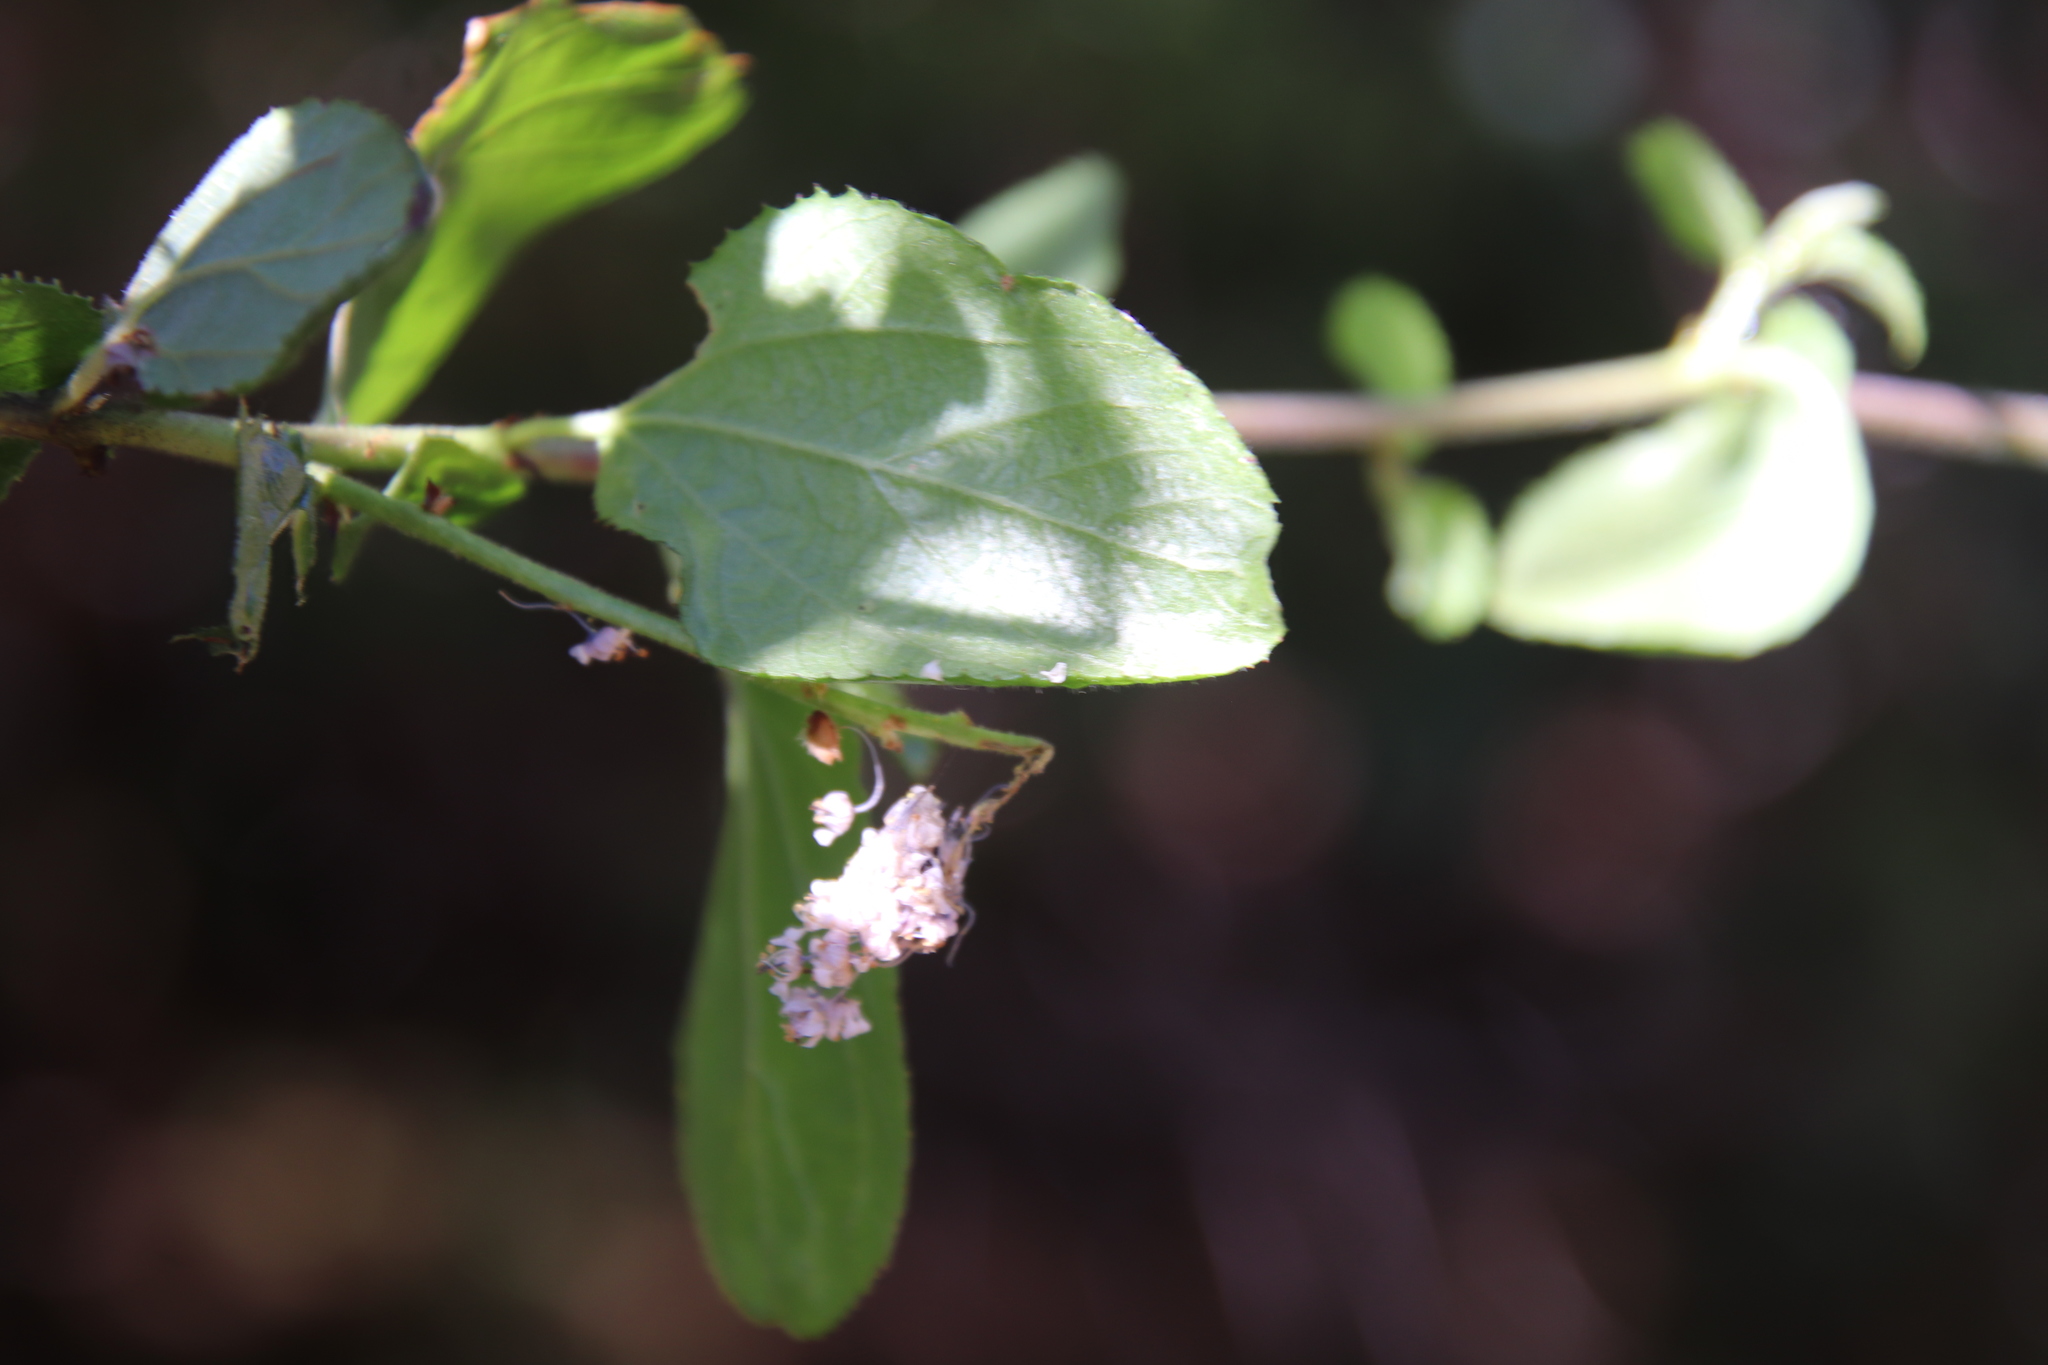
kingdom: Plantae
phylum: Tracheophyta
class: Magnoliopsida
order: Rosales
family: Rhamnaceae
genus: Ceanothus
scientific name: Ceanothus oliganthus
